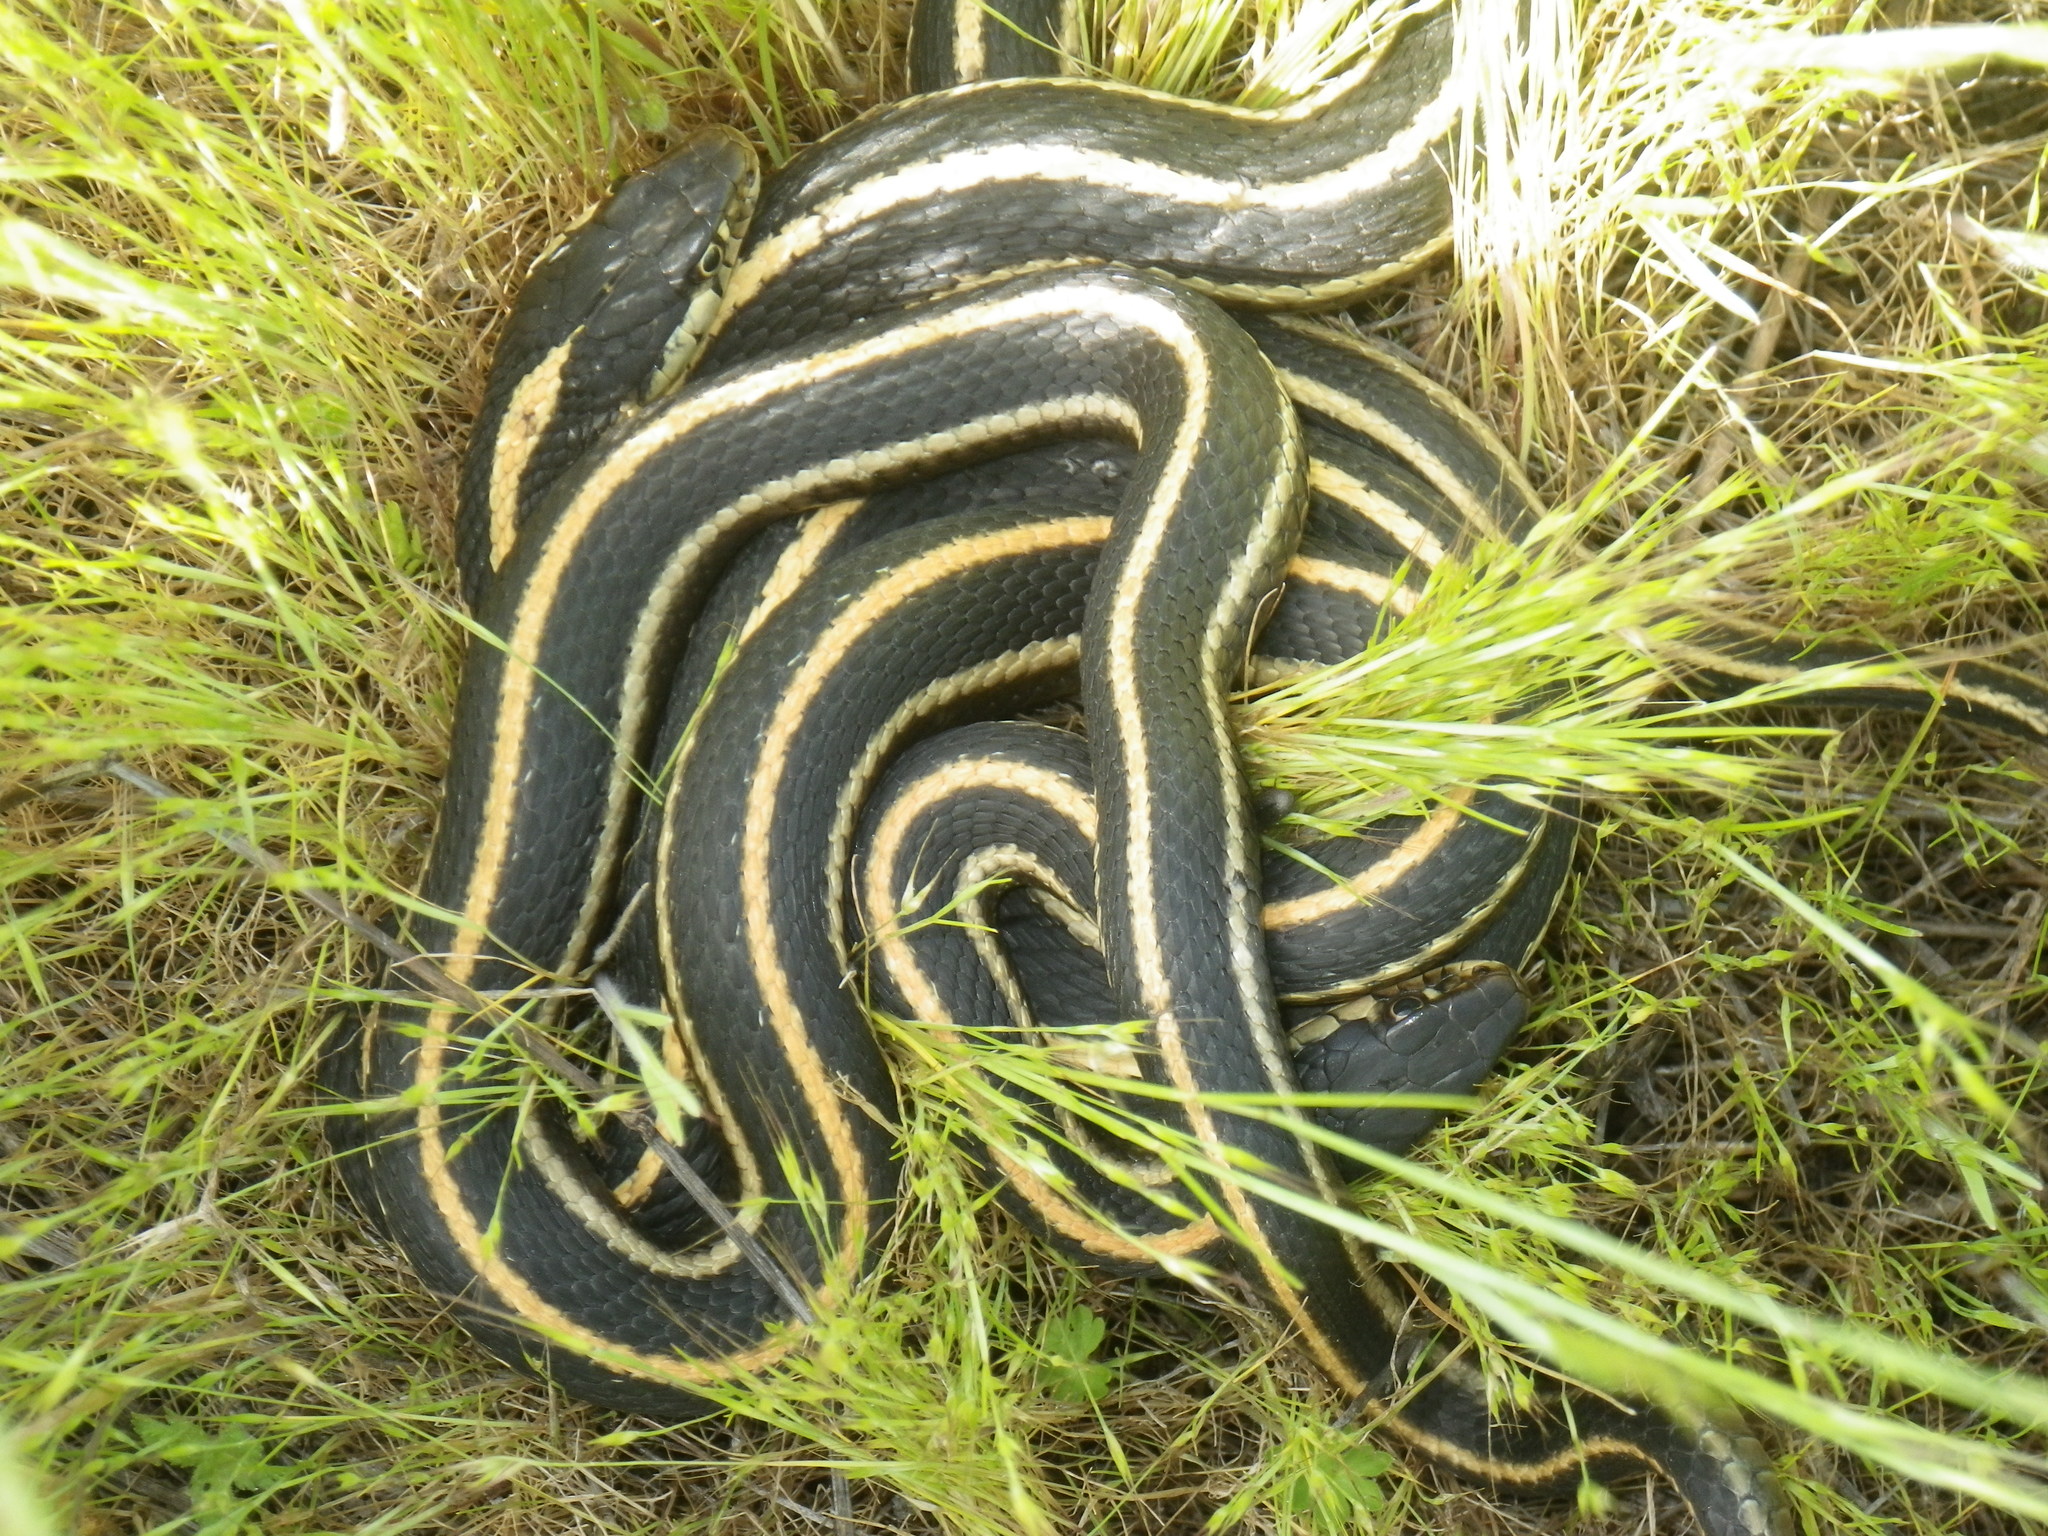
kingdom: Animalia
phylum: Chordata
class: Squamata
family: Colubridae
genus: Thamnophis
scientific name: Thamnophis elegans
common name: Western terrestrial garter snake
